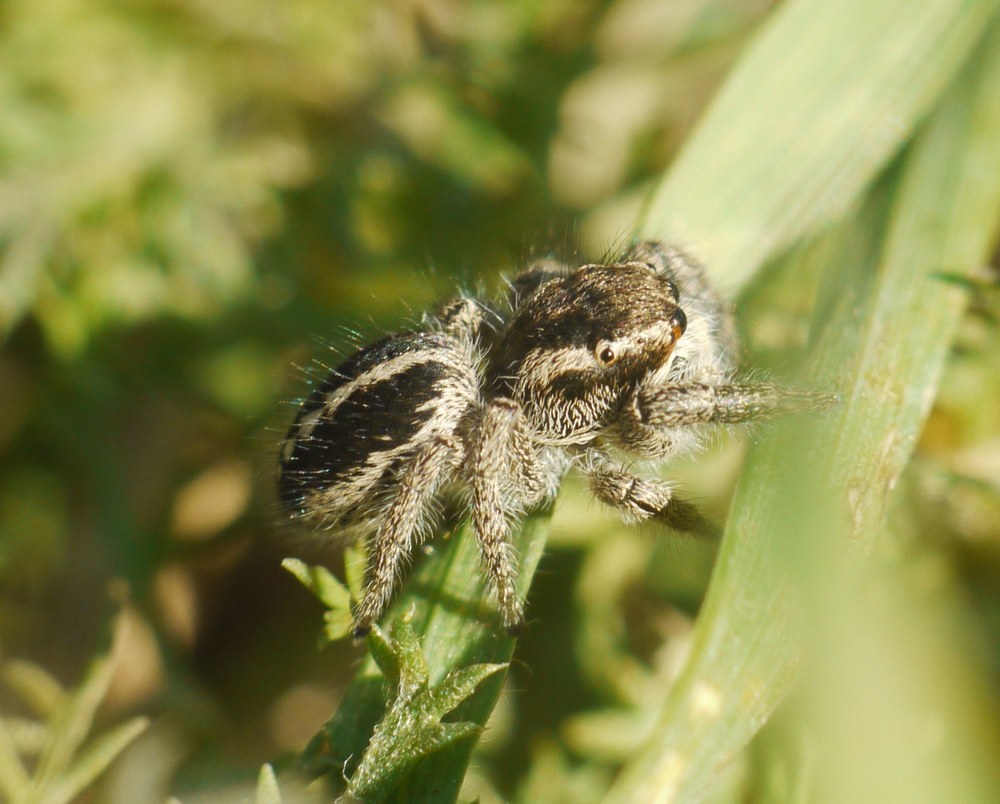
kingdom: Animalia
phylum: Arthropoda
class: Arachnida
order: Araneae
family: Salticidae
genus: Pellenes
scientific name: Pellenes seriatus
